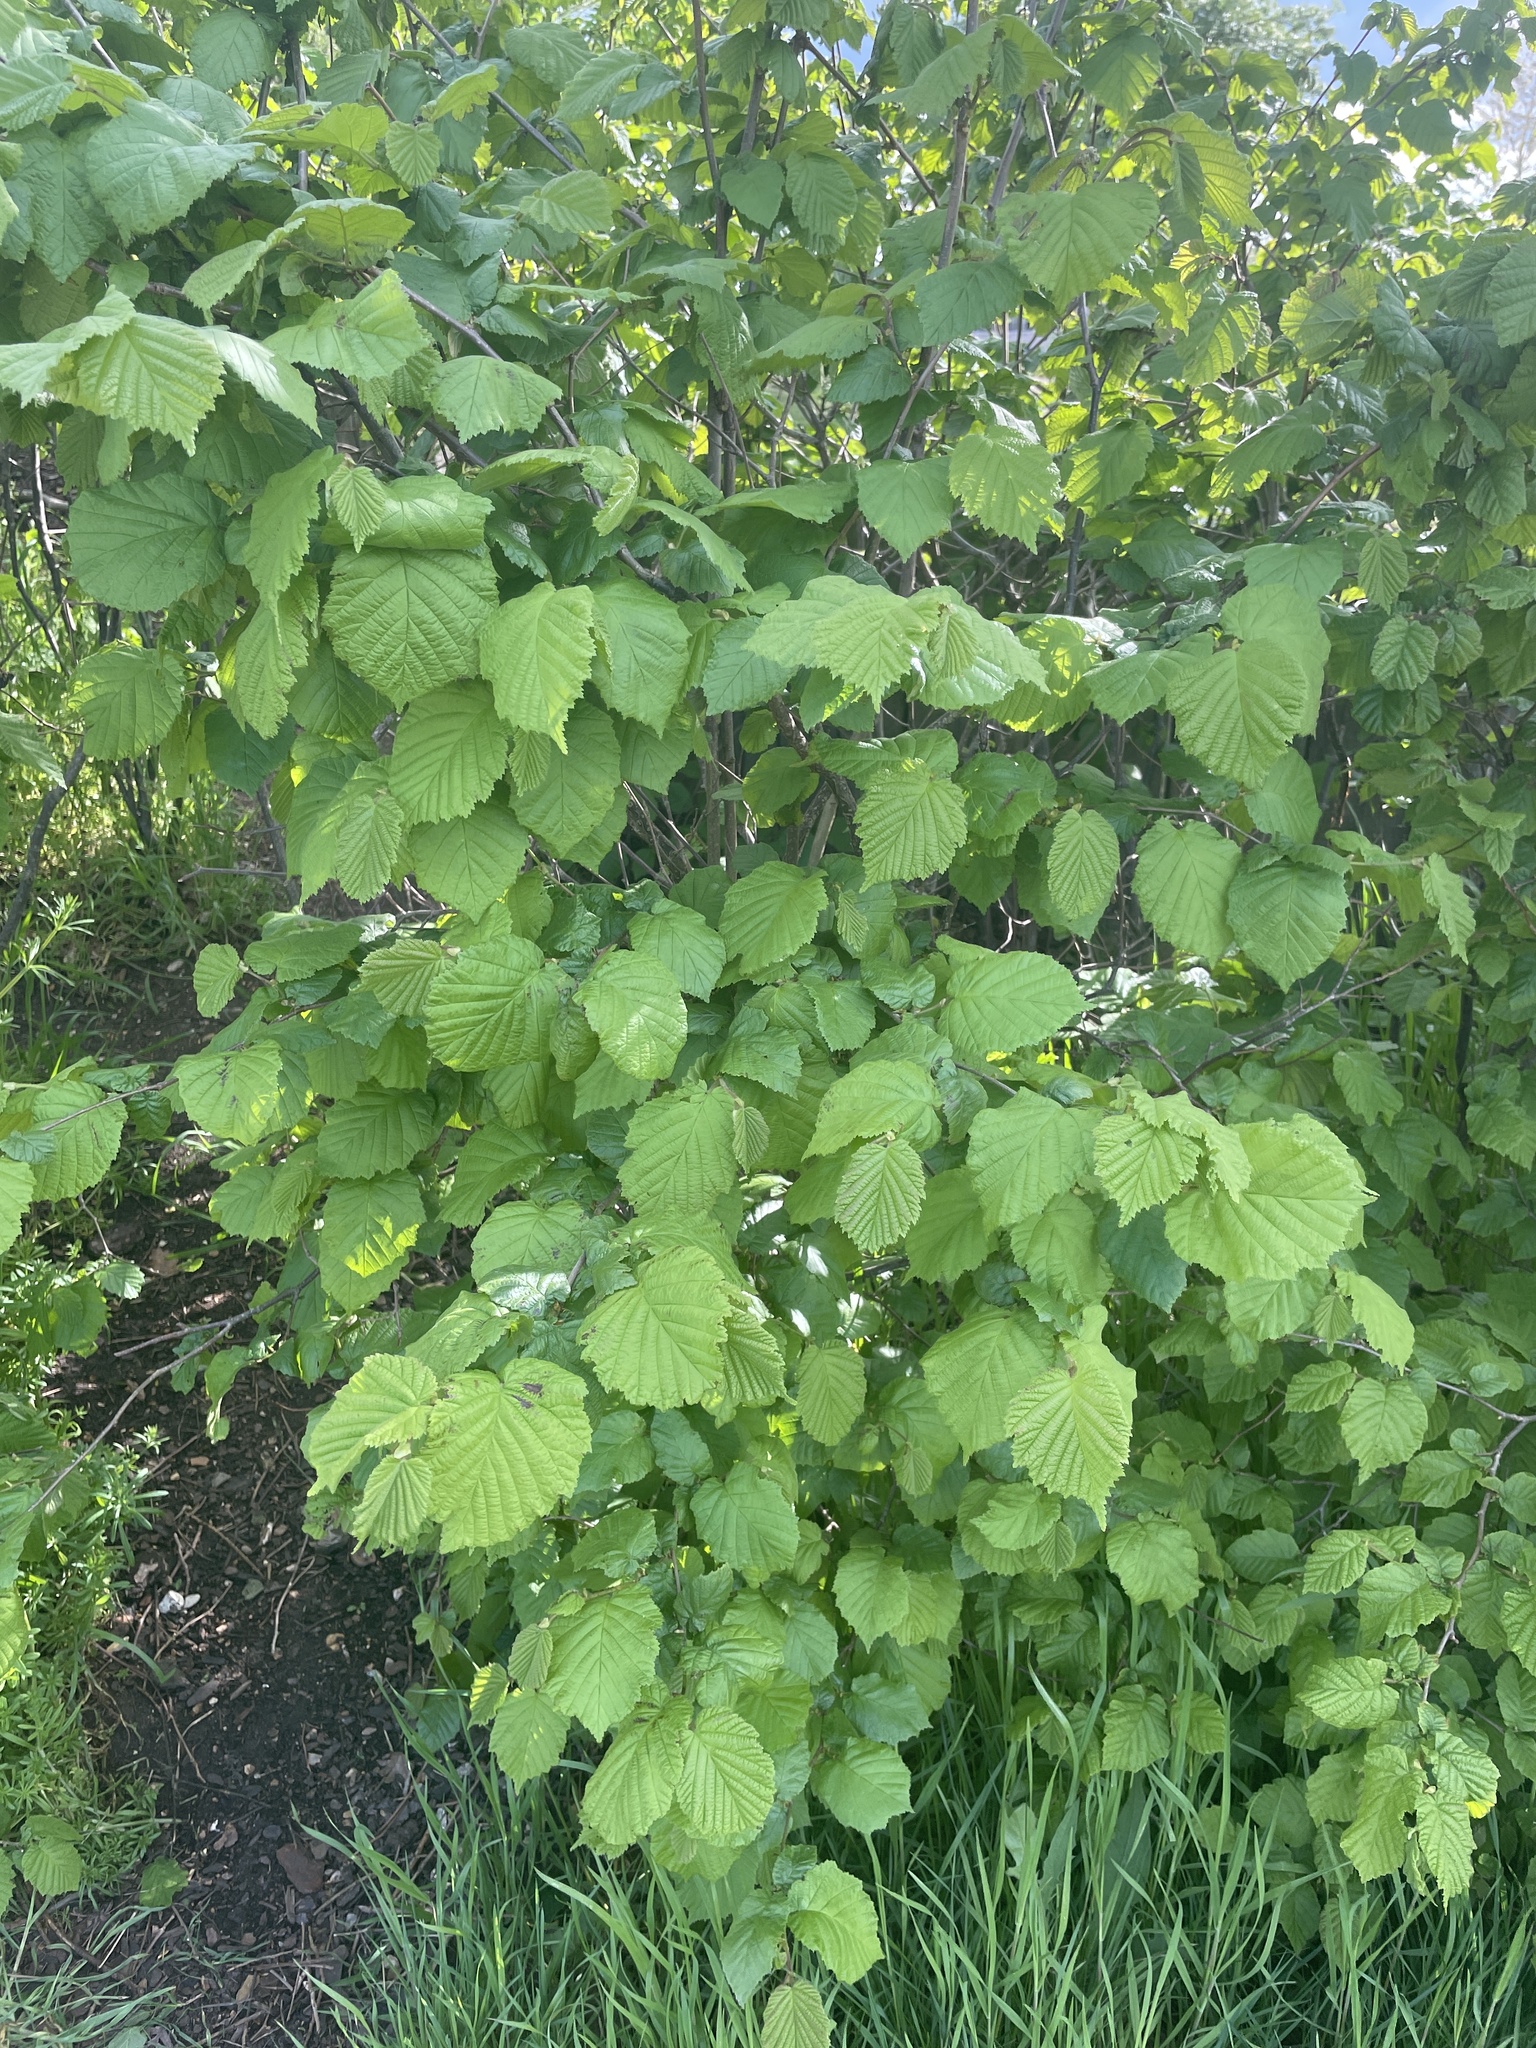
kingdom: Plantae
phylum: Tracheophyta
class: Magnoliopsida
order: Fagales
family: Betulaceae
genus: Corylus
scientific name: Corylus avellana
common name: European hazel
